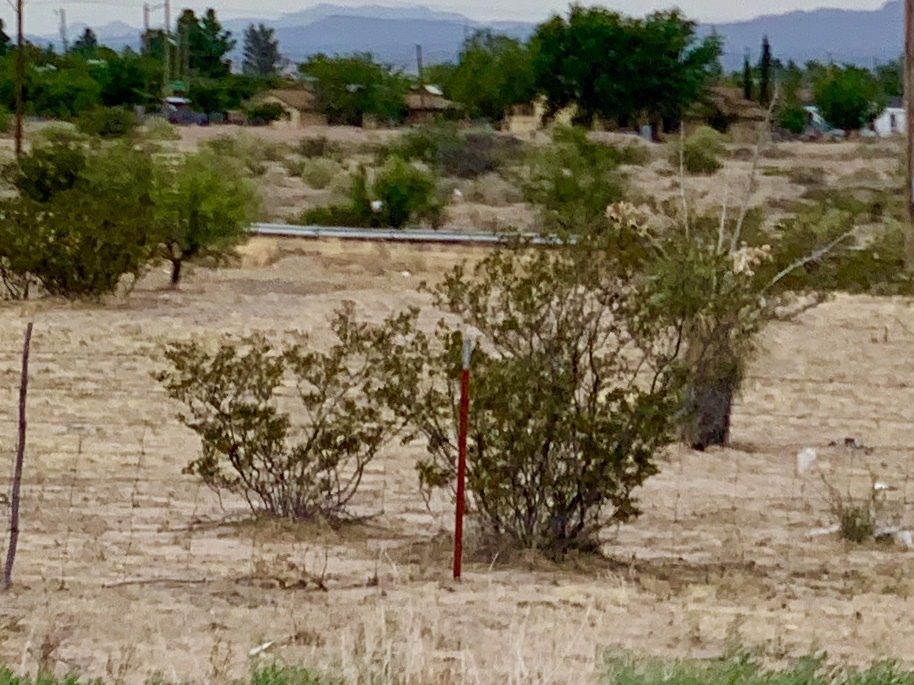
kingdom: Plantae
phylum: Tracheophyta
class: Magnoliopsida
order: Zygophyllales
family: Zygophyllaceae
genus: Larrea
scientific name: Larrea tridentata
